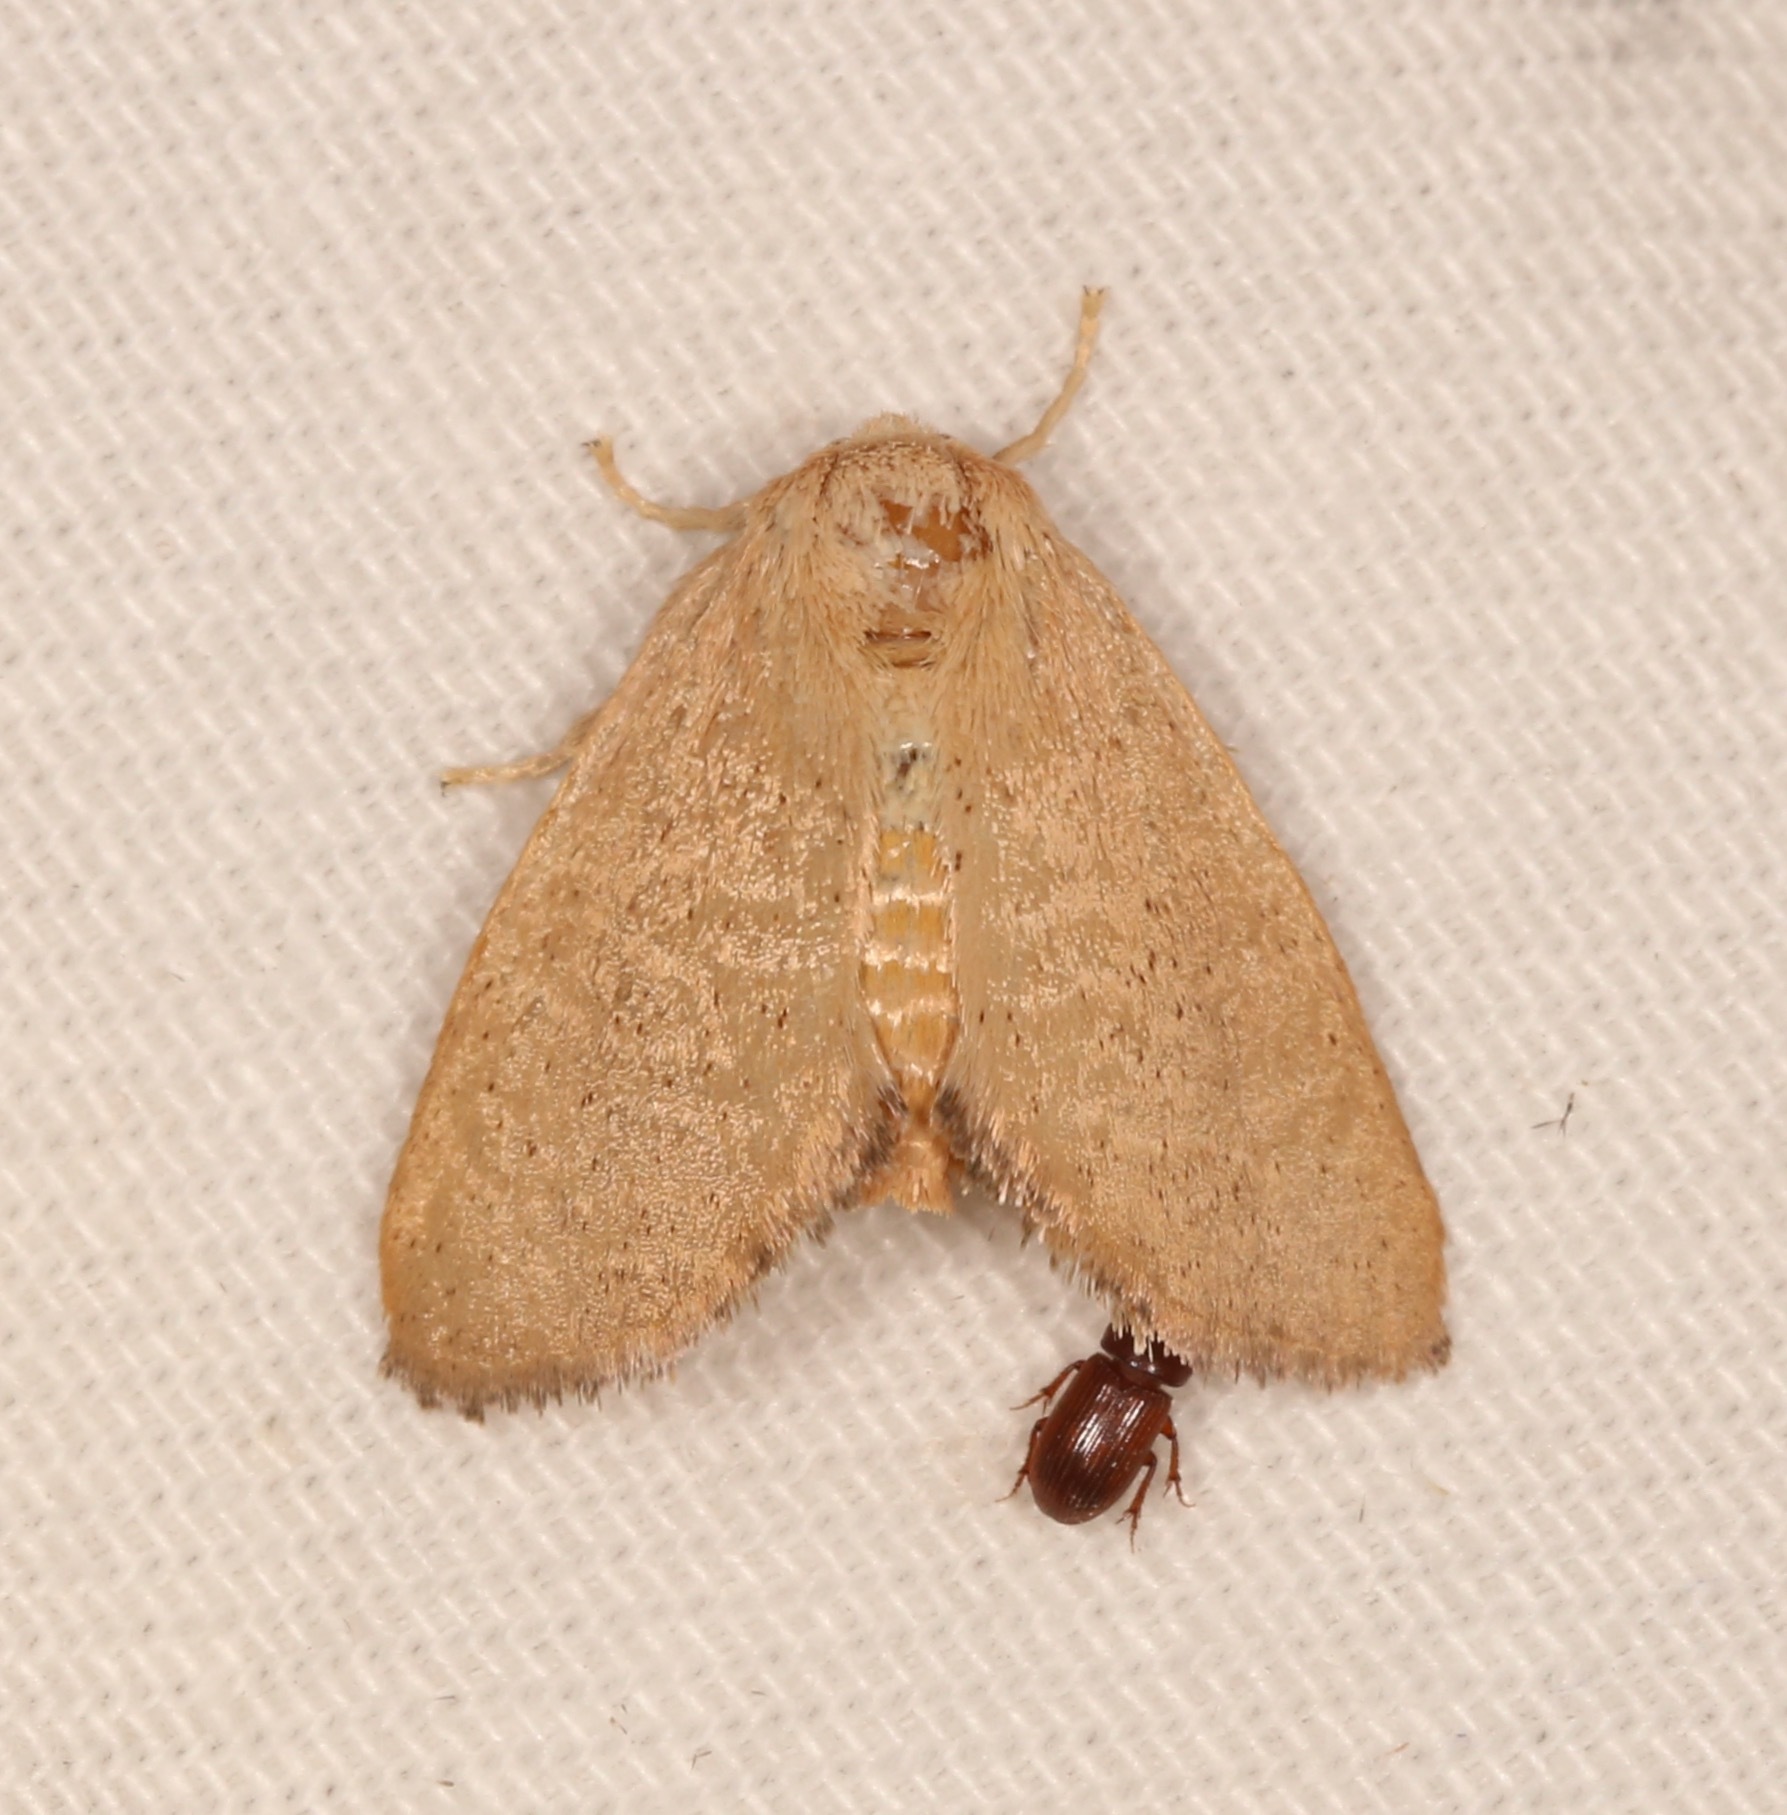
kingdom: Animalia
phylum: Arthropoda
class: Insecta
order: Lepidoptera
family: Limacodidae
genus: Isa
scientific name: Isa schaefferana
